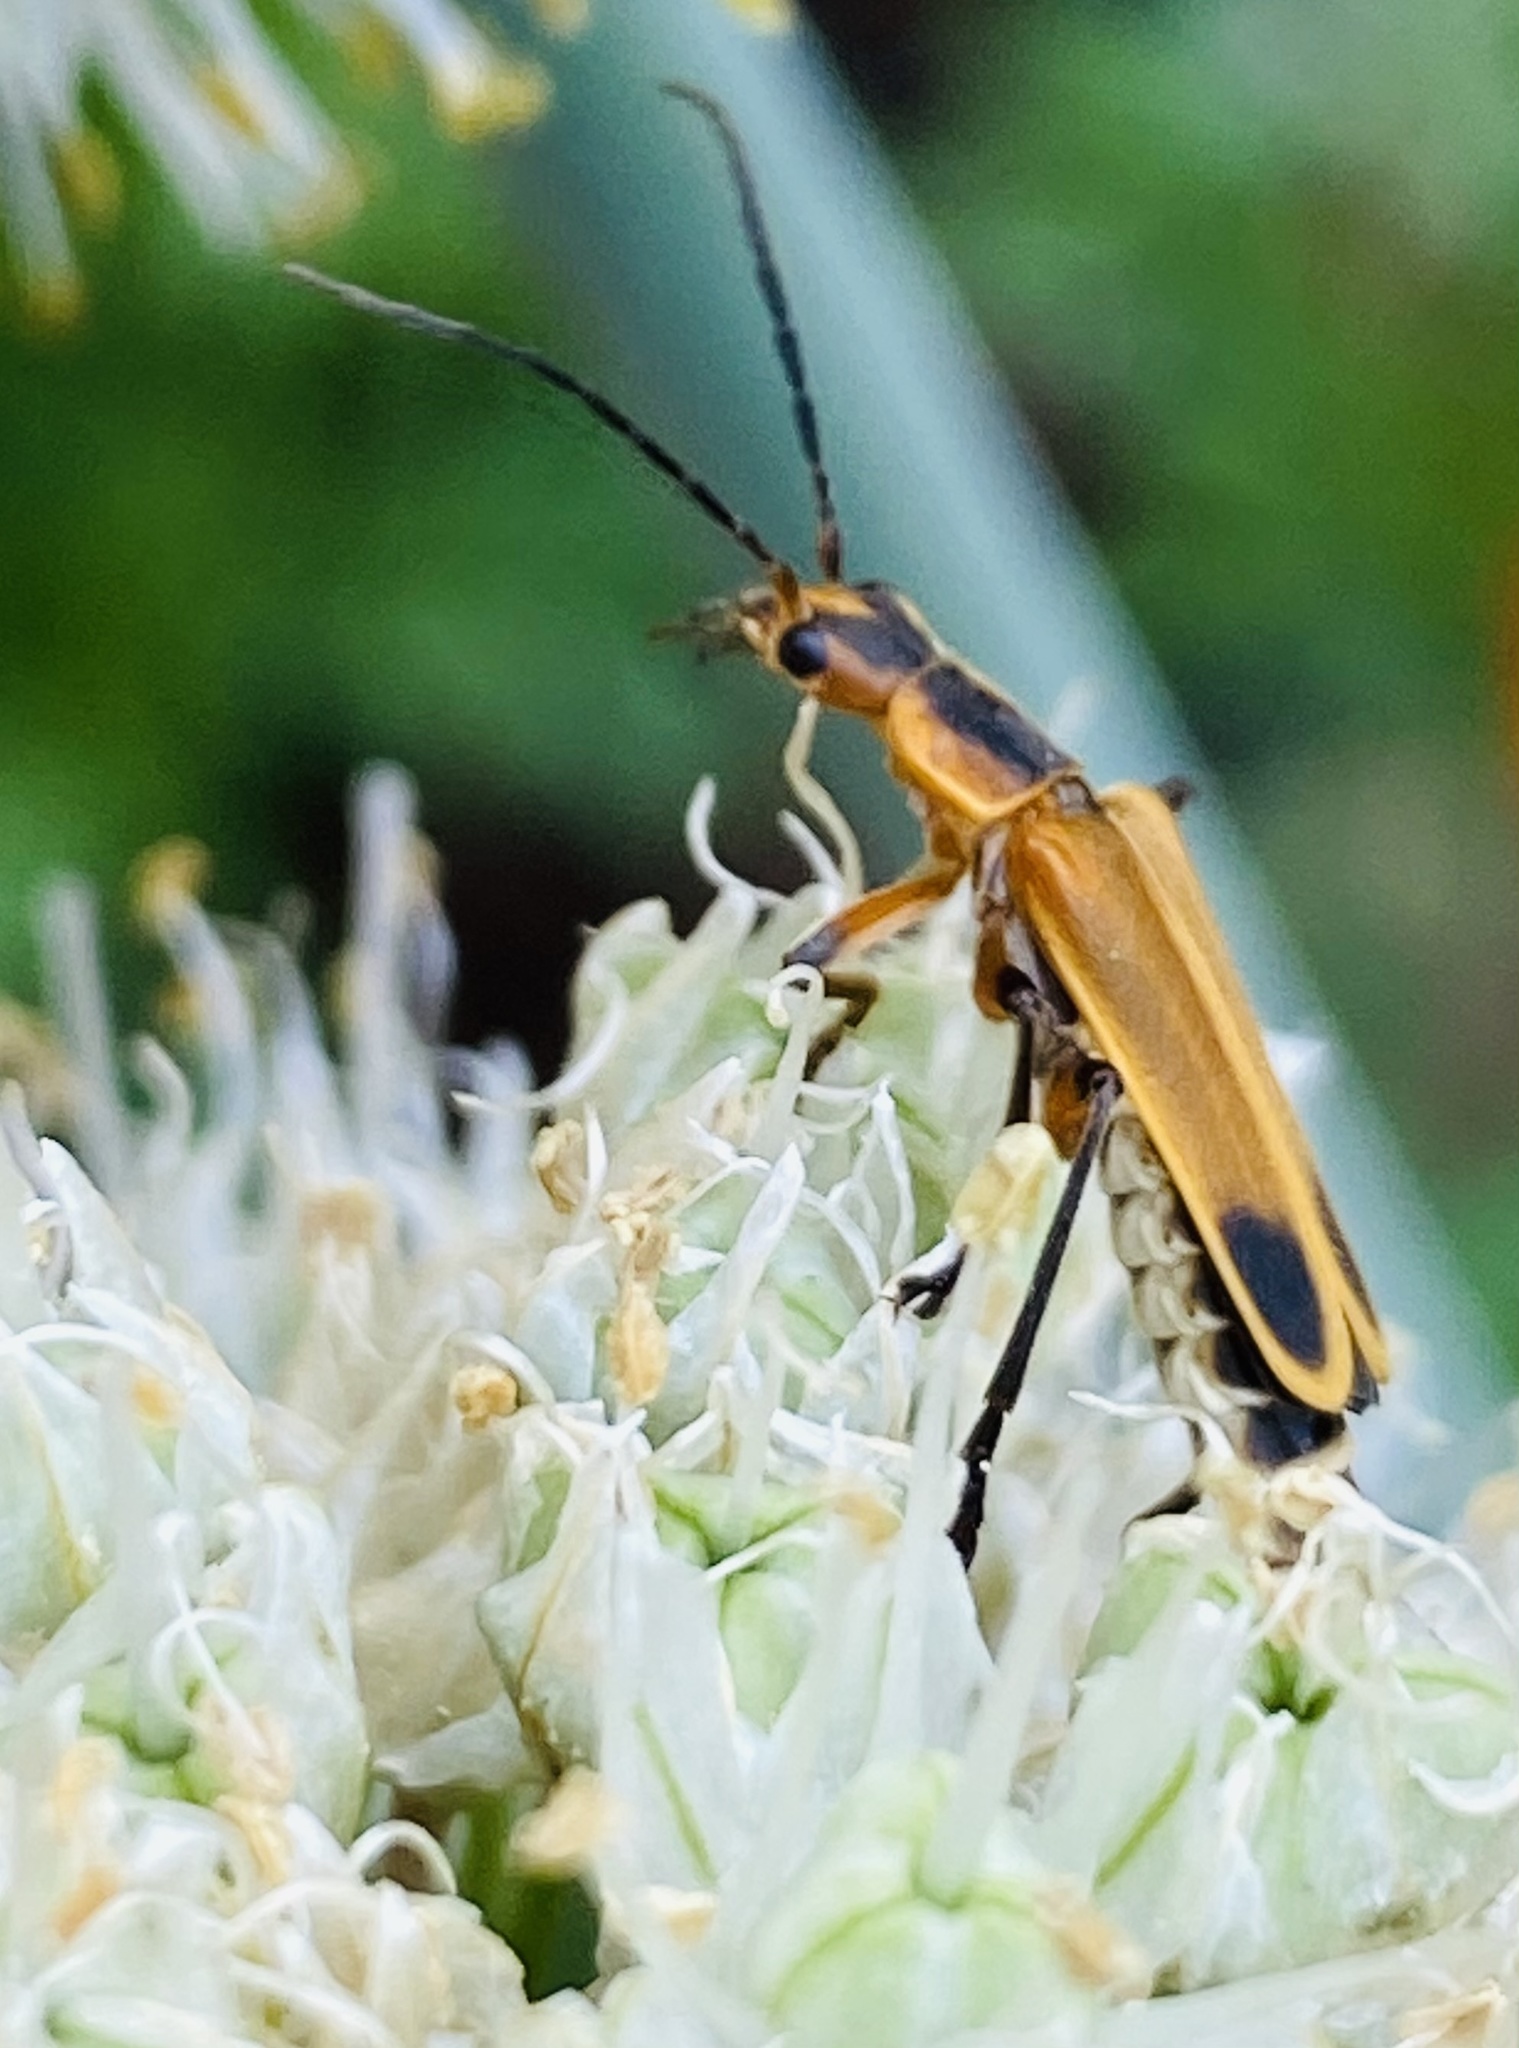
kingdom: Animalia
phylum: Arthropoda
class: Insecta
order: Coleoptera
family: Cantharidae
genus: Chauliognathus
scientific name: Chauliognathus marginatus
